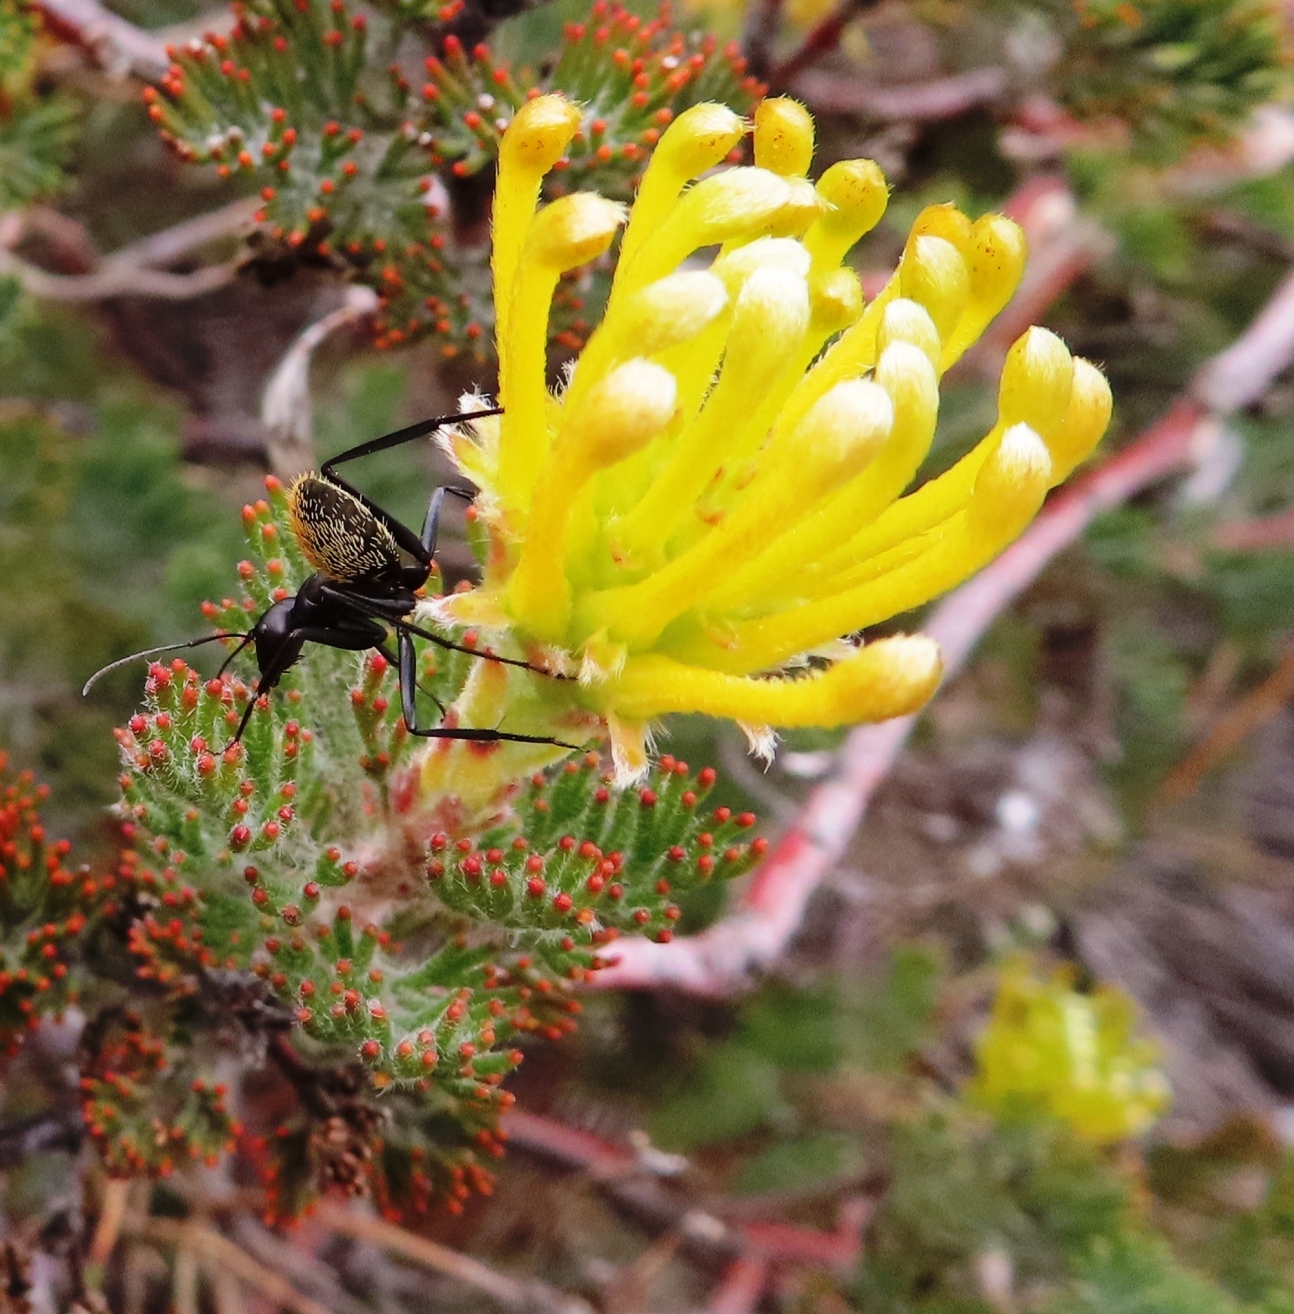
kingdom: Animalia
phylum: Arthropoda
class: Insecta
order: Hymenoptera
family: Formicidae
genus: Camponotus
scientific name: Camponotus fulvopilosus
